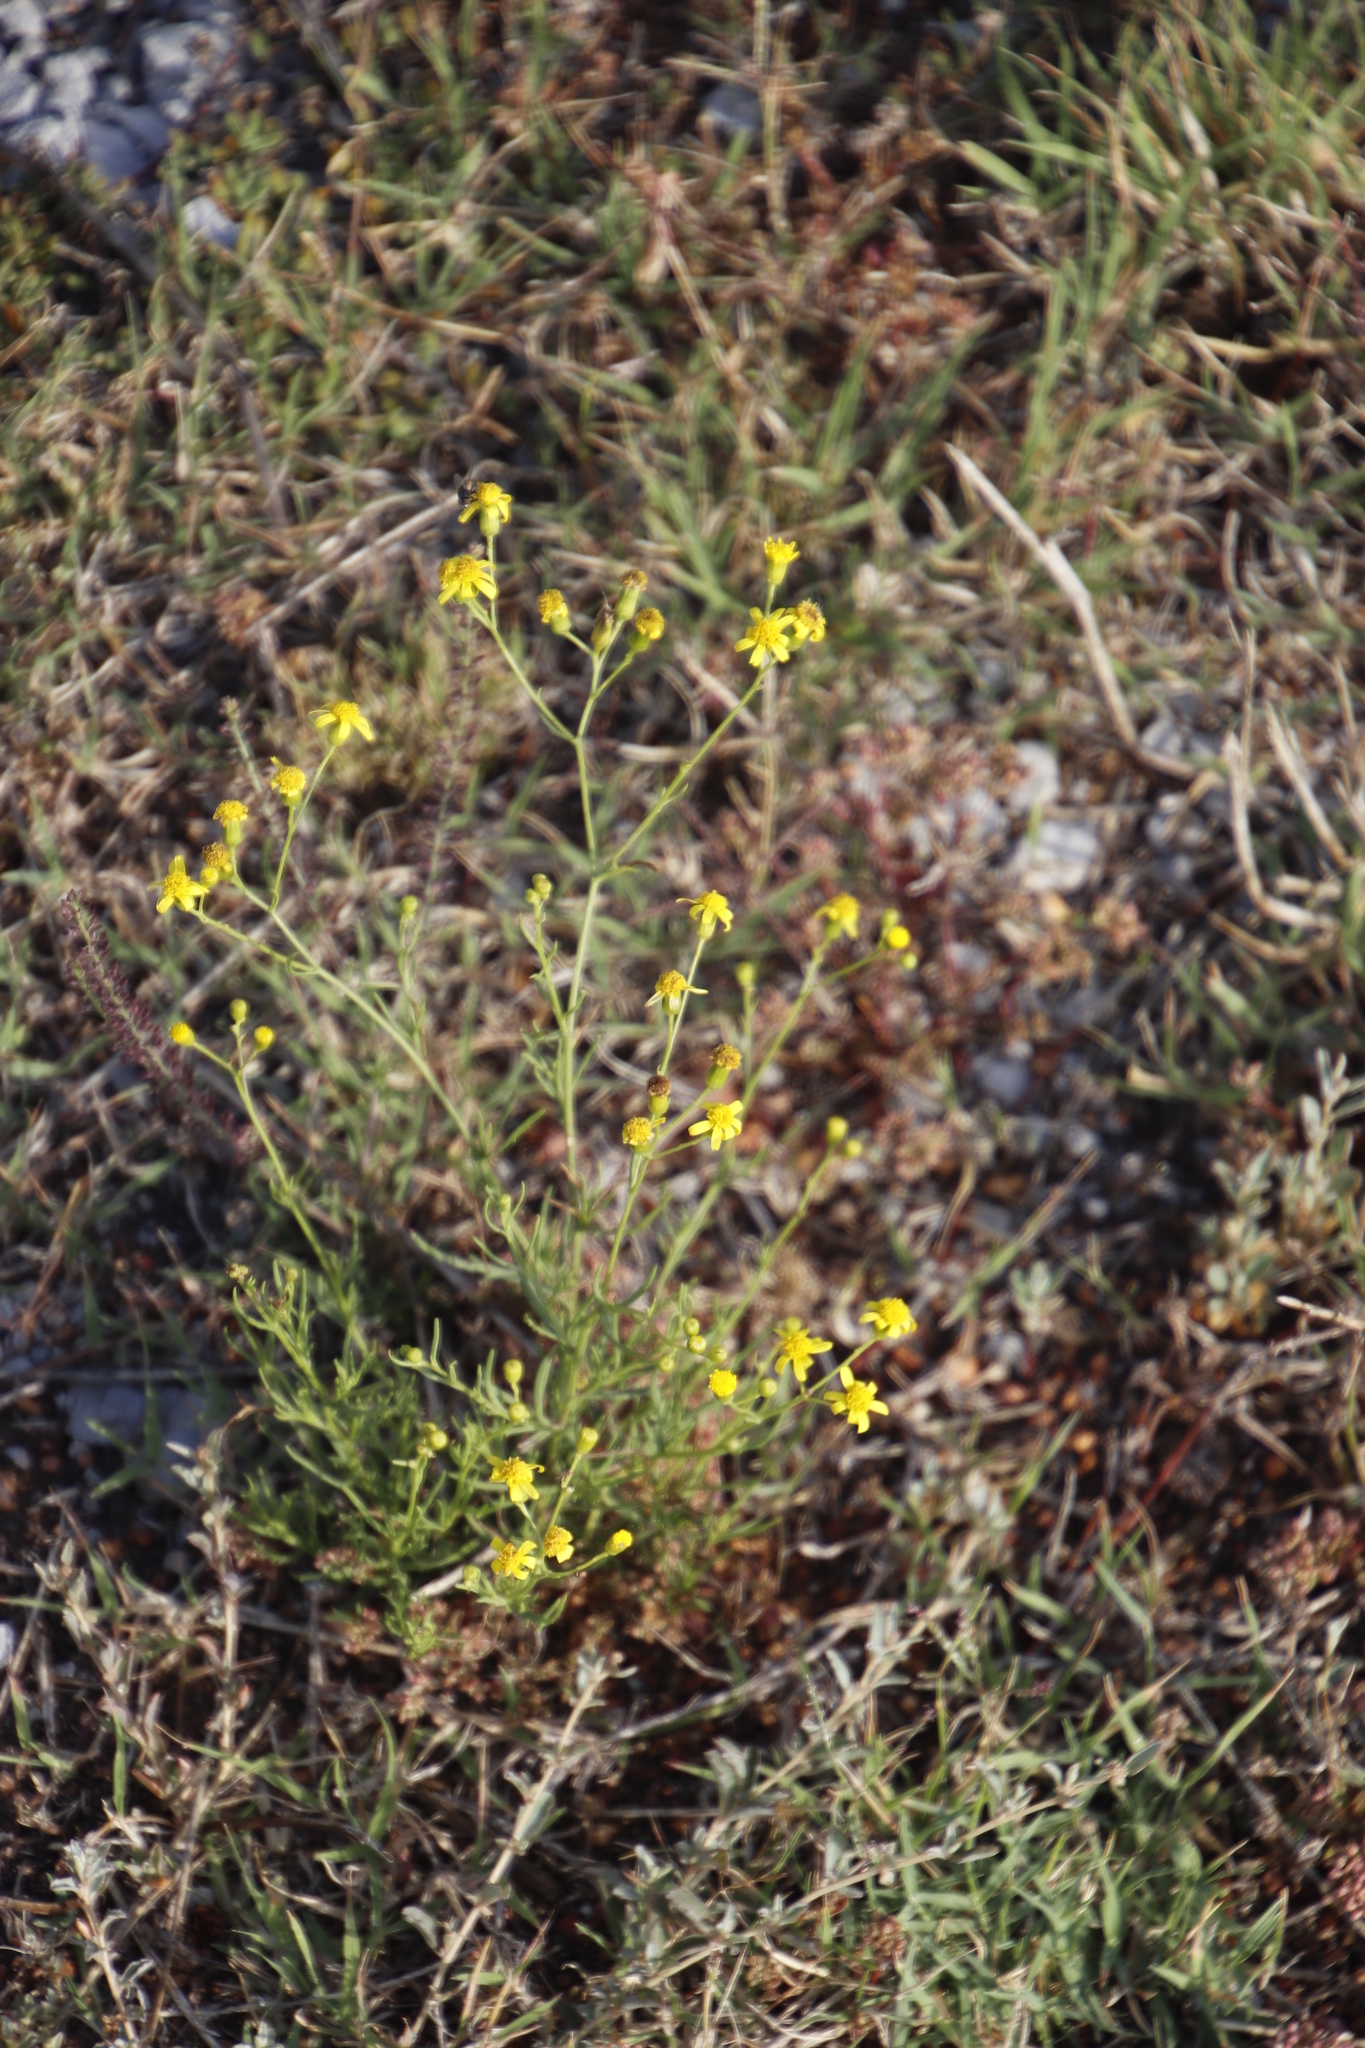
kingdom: Plantae
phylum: Tracheophyta
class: Magnoliopsida
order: Asterales
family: Asteraceae
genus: Senecio
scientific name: Senecio burchellii
